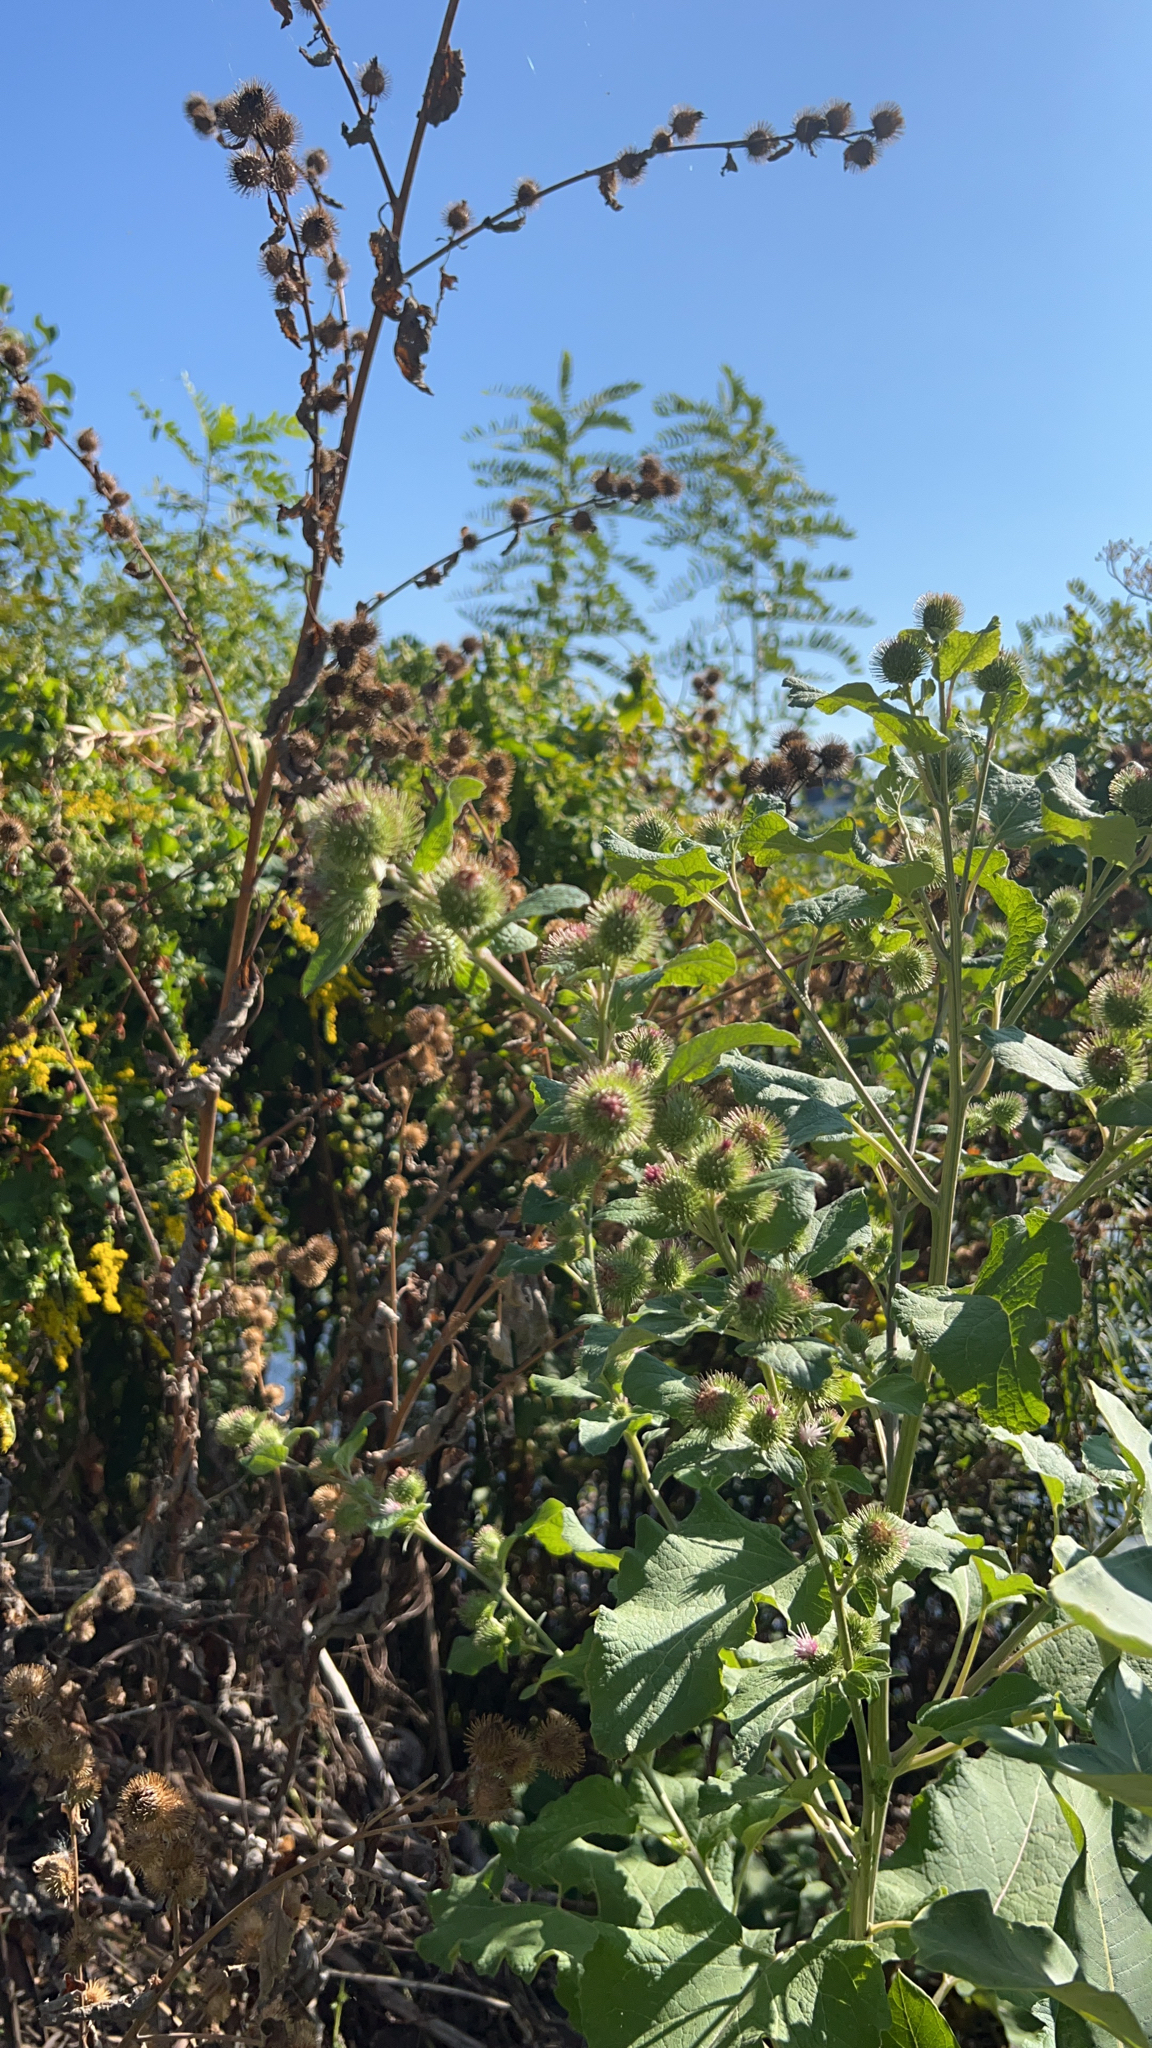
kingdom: Plantae
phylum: Tracheophyta
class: Magnoliopsida
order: Asterales
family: Asteraceae
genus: Arctium
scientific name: Arctium minus
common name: Lesser burdock
